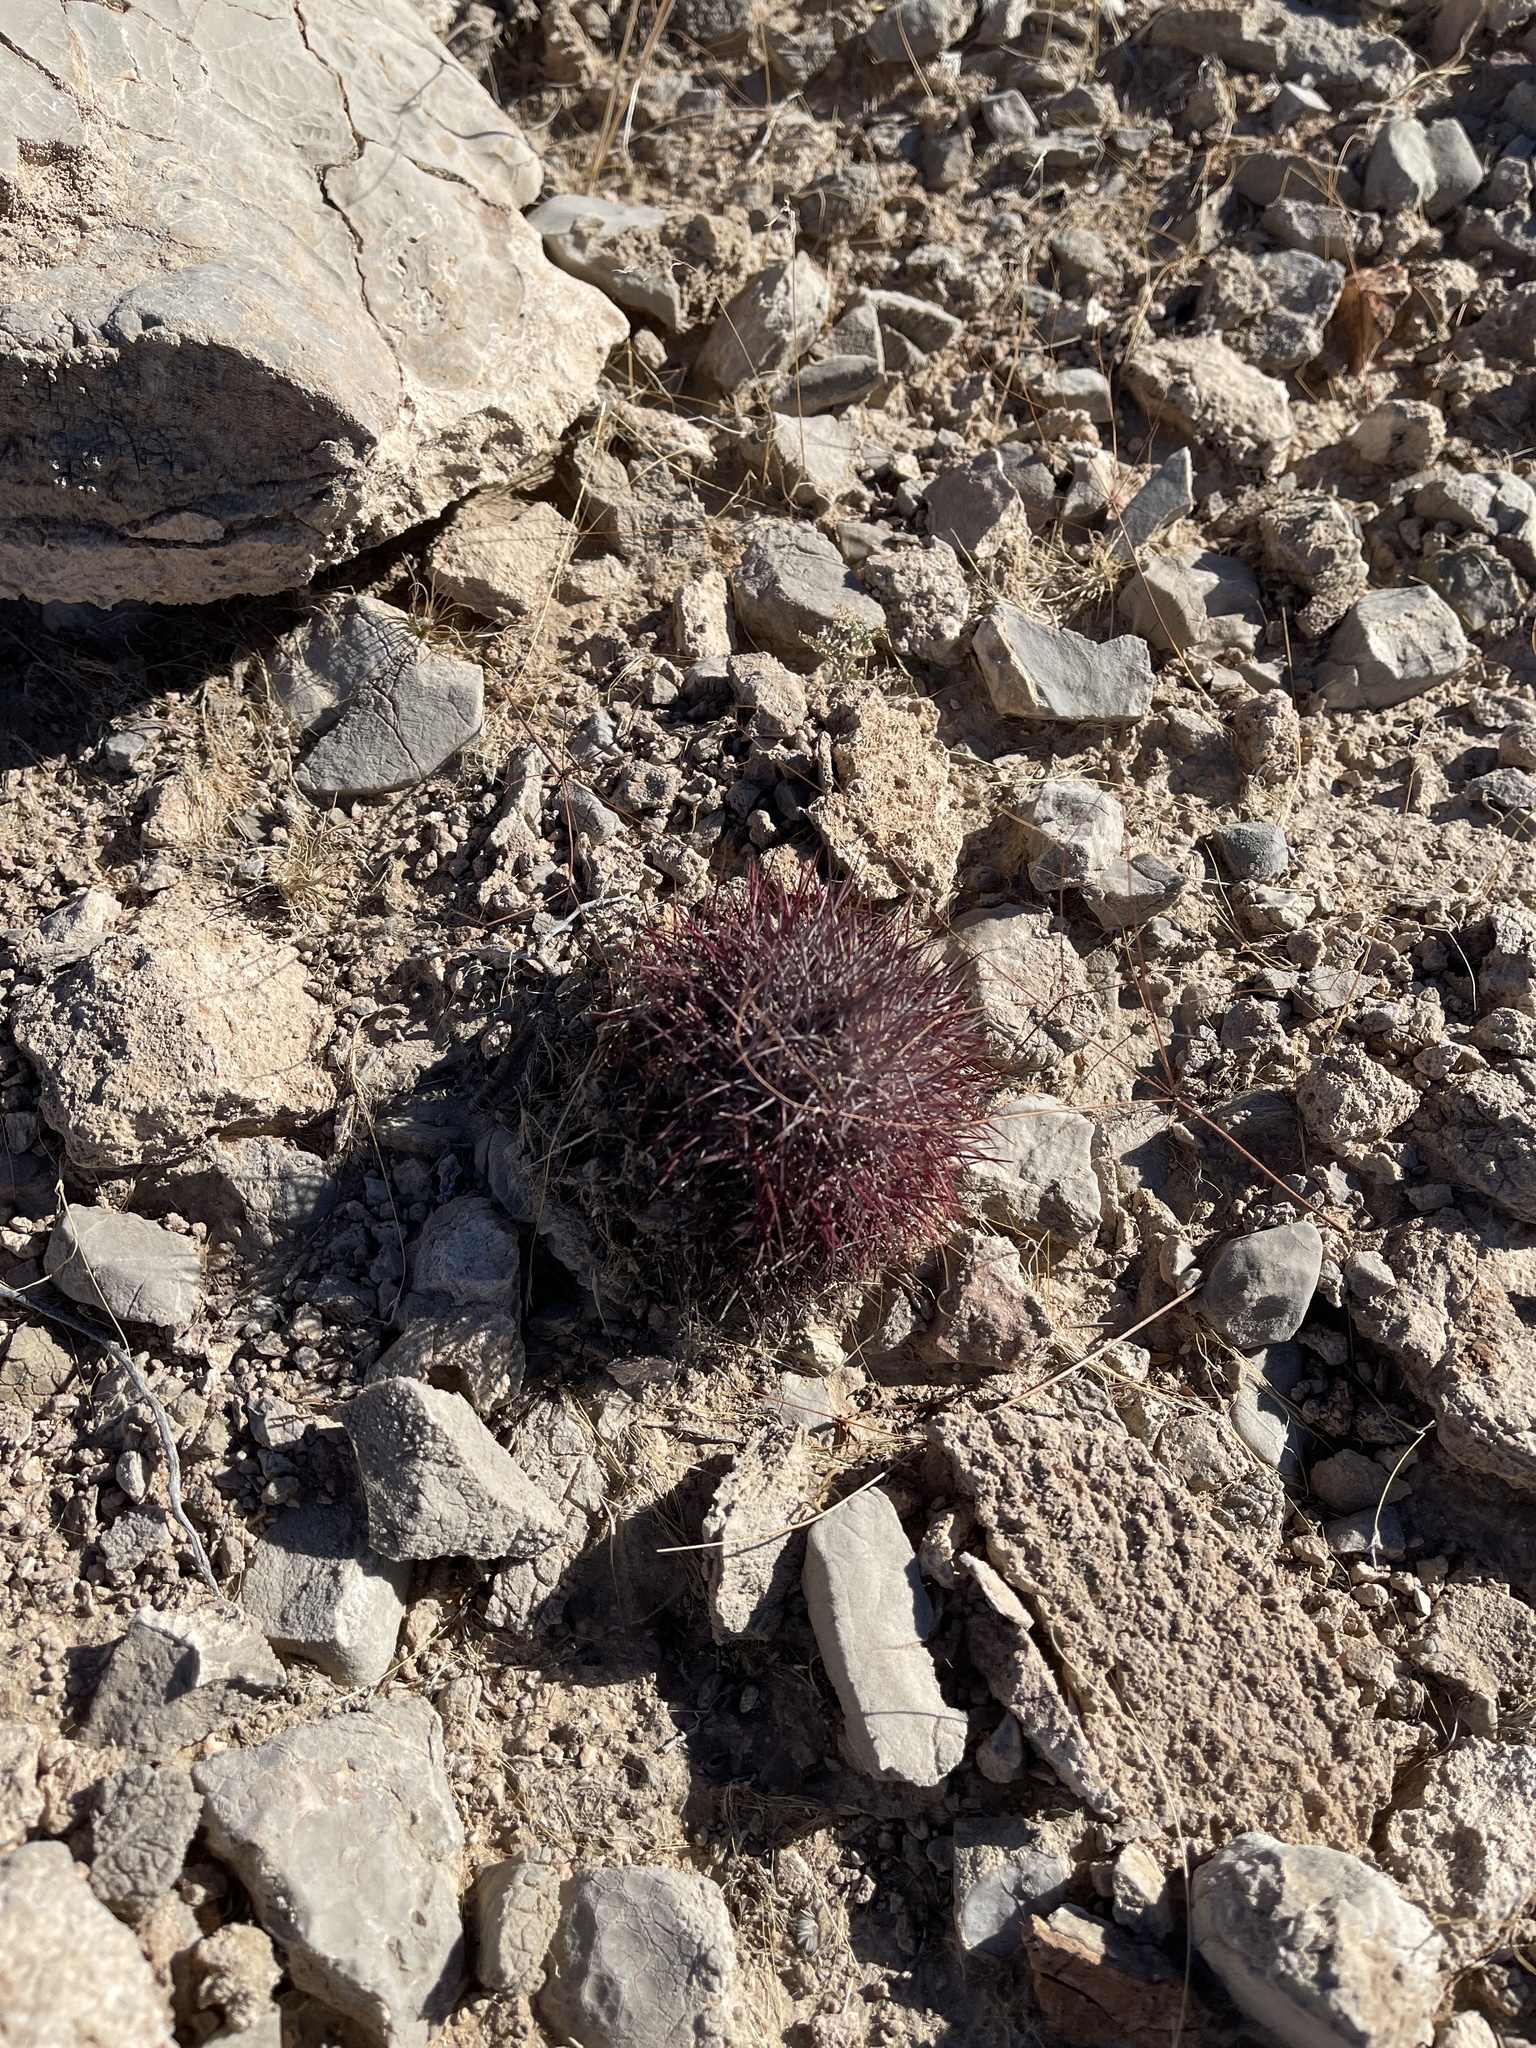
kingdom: Plantae
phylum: Tracheophyta
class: Magnoliopsida
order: Caryophyllales
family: Cactaceae
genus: Sclerocactus
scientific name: Sclerocactus johnsonii
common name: Eight-spine fishhook cactus
